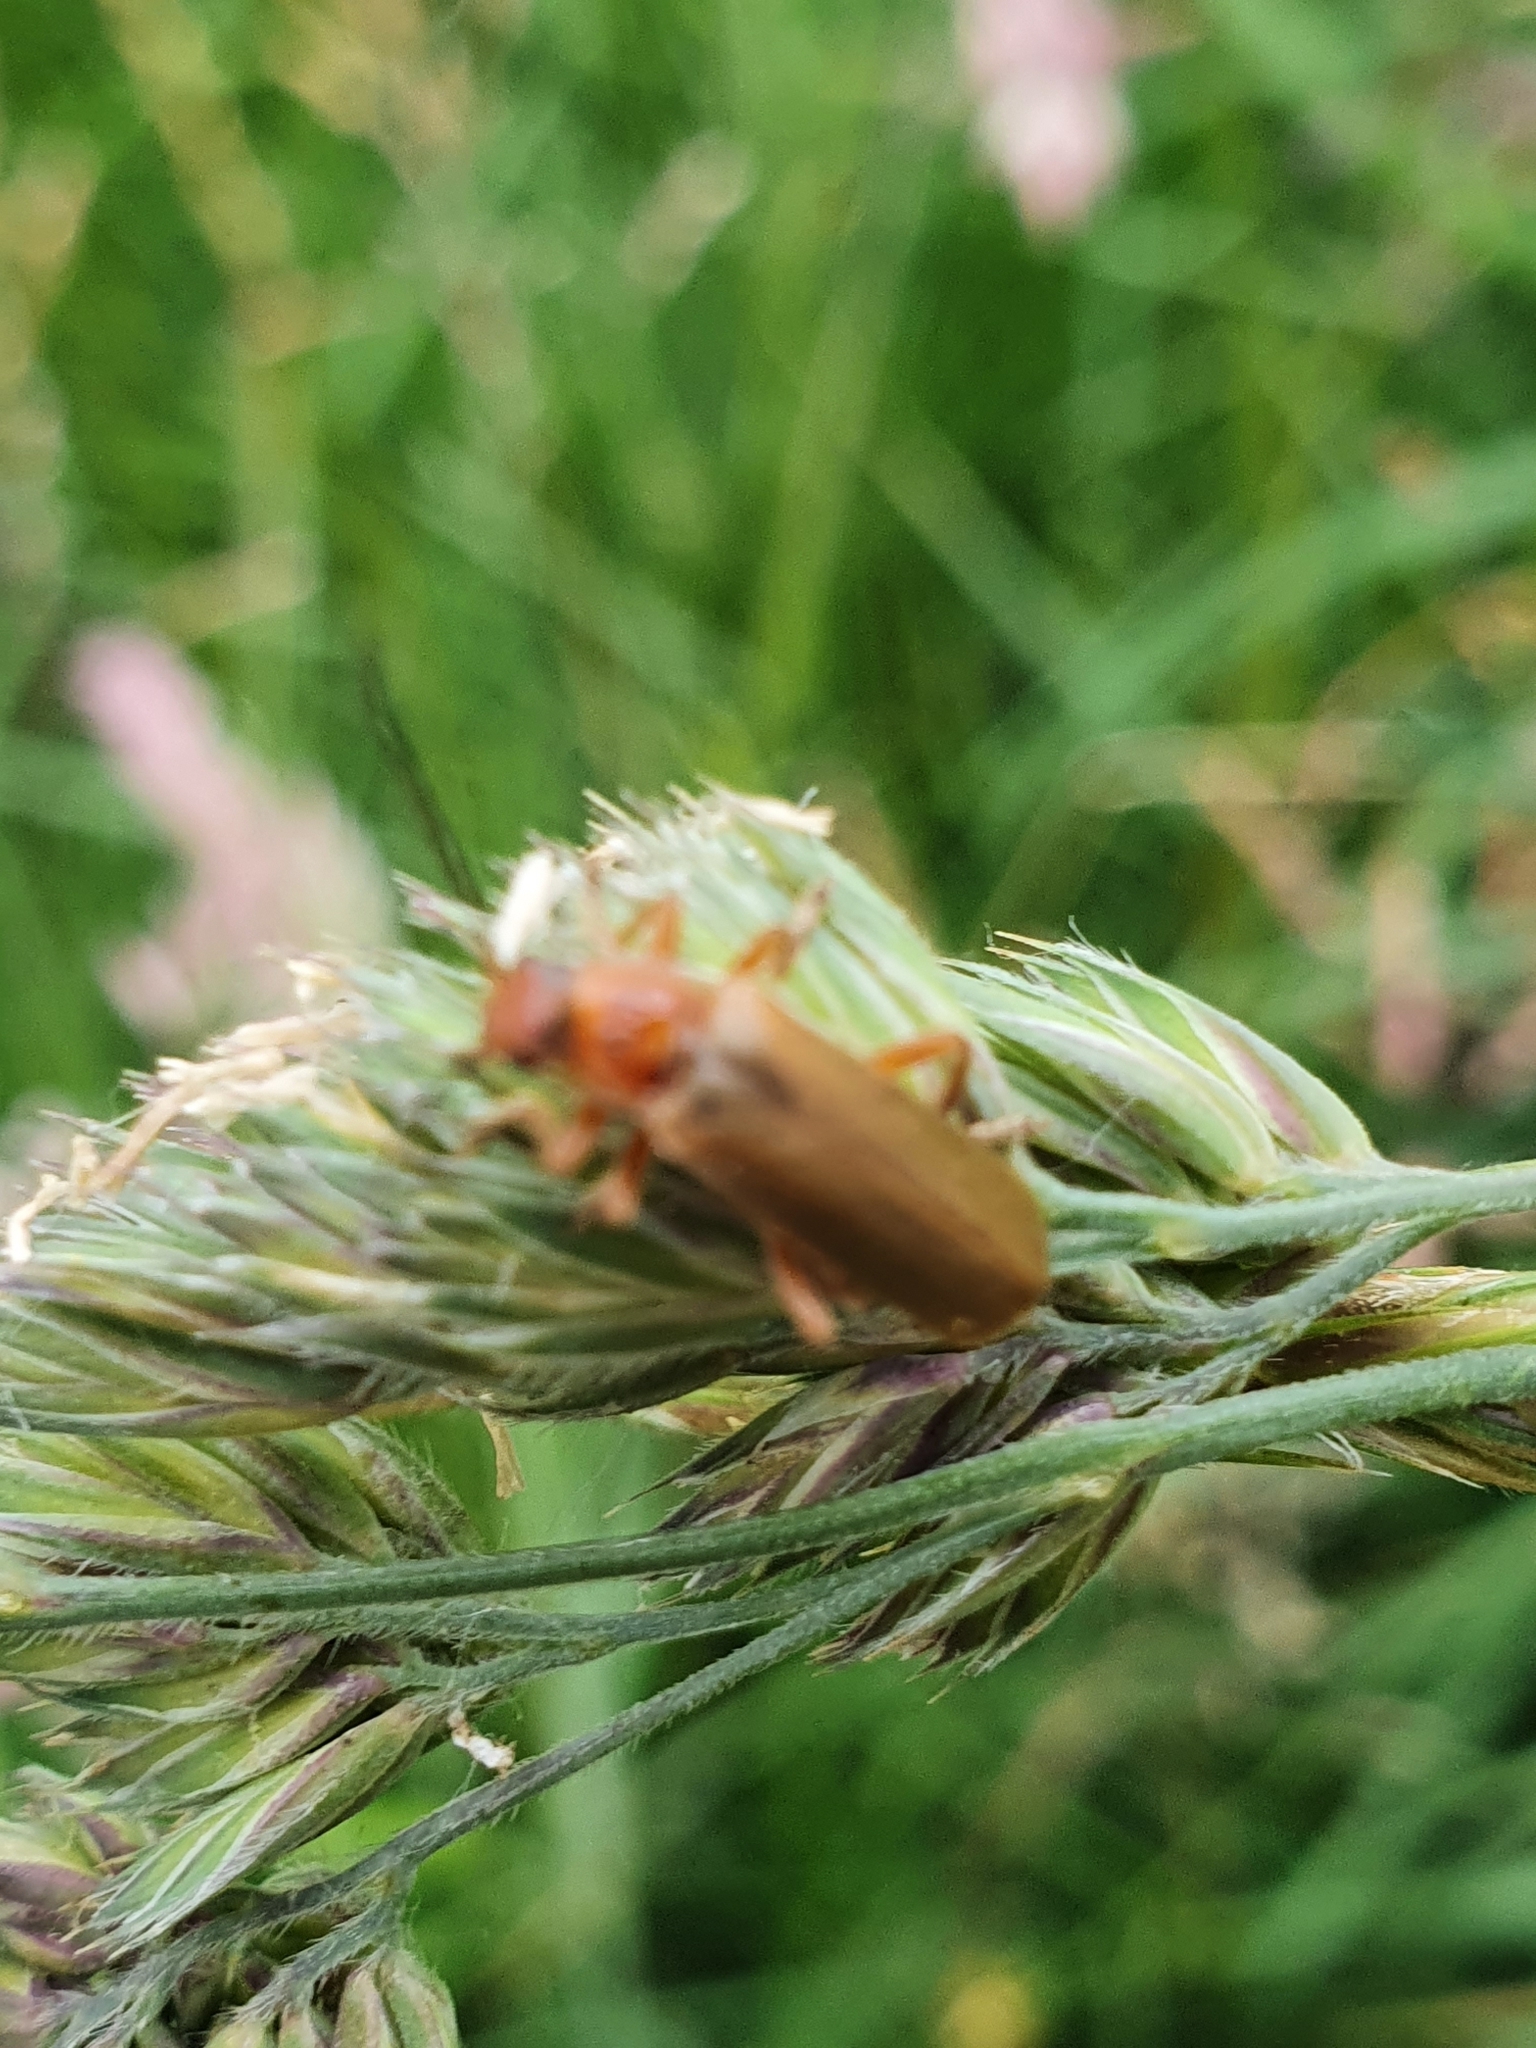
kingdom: Animalia
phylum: Arthropoda
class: Insecta
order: Coleoptera
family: Cantharidae
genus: Cantharis
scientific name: Cantharis rufa
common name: Red-spotted soldier beetle
